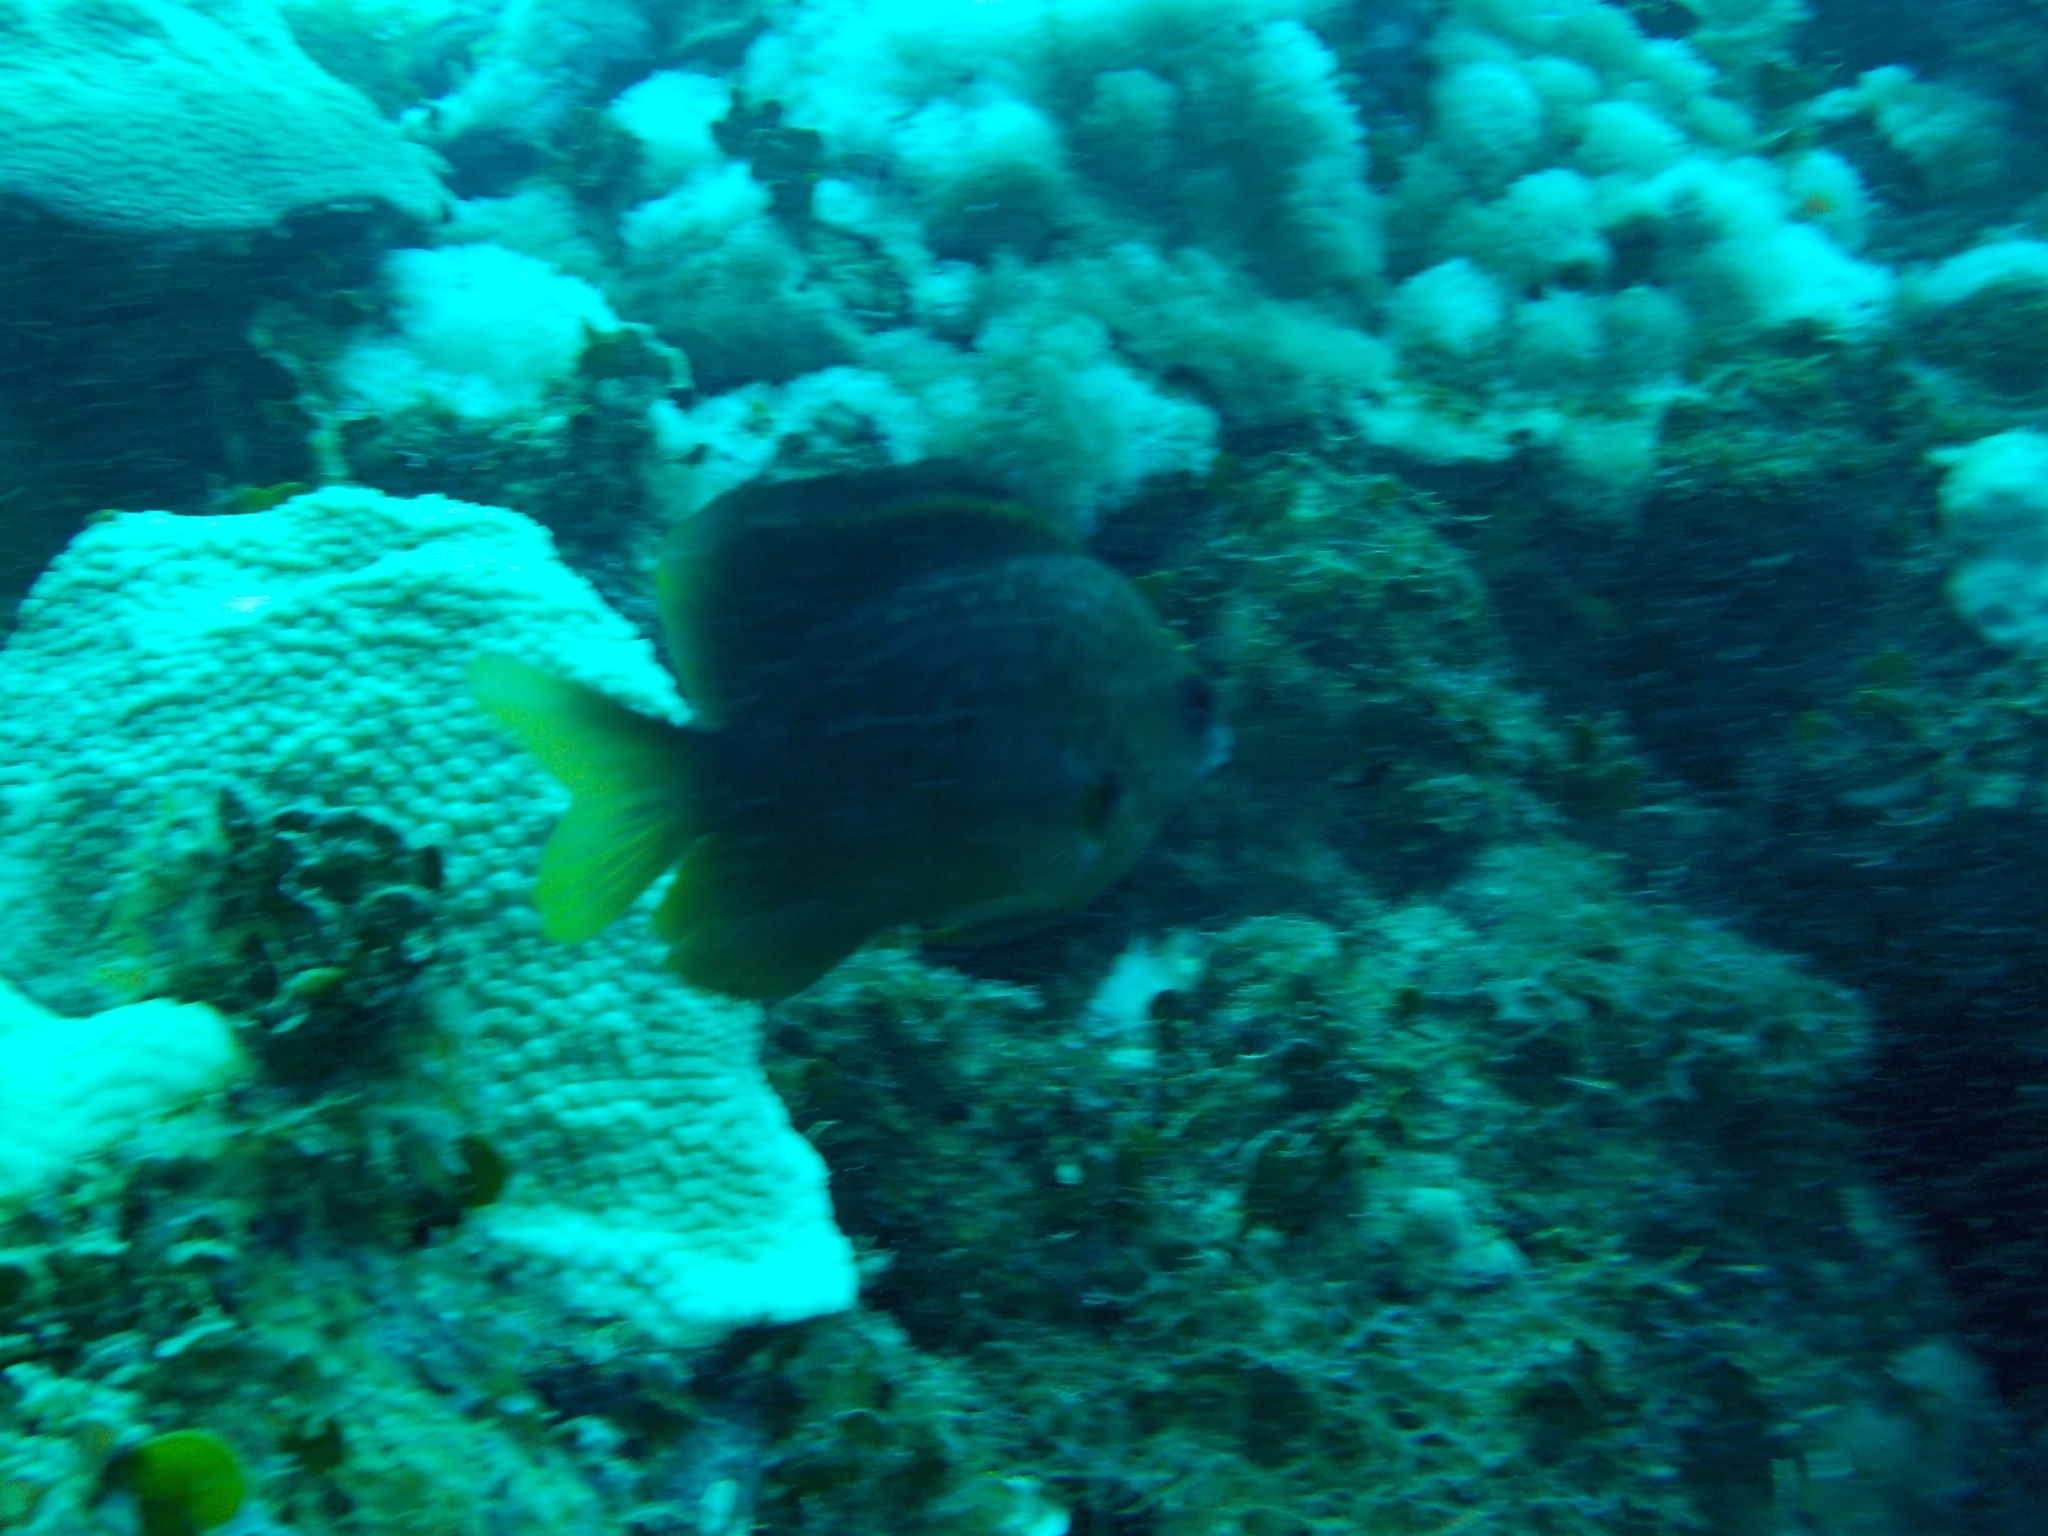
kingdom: Animalia
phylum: Chordata
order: Perciformes
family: Pomacentridae
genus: Stegastes
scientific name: Stegastes planifrons
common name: Threespot damselfish
